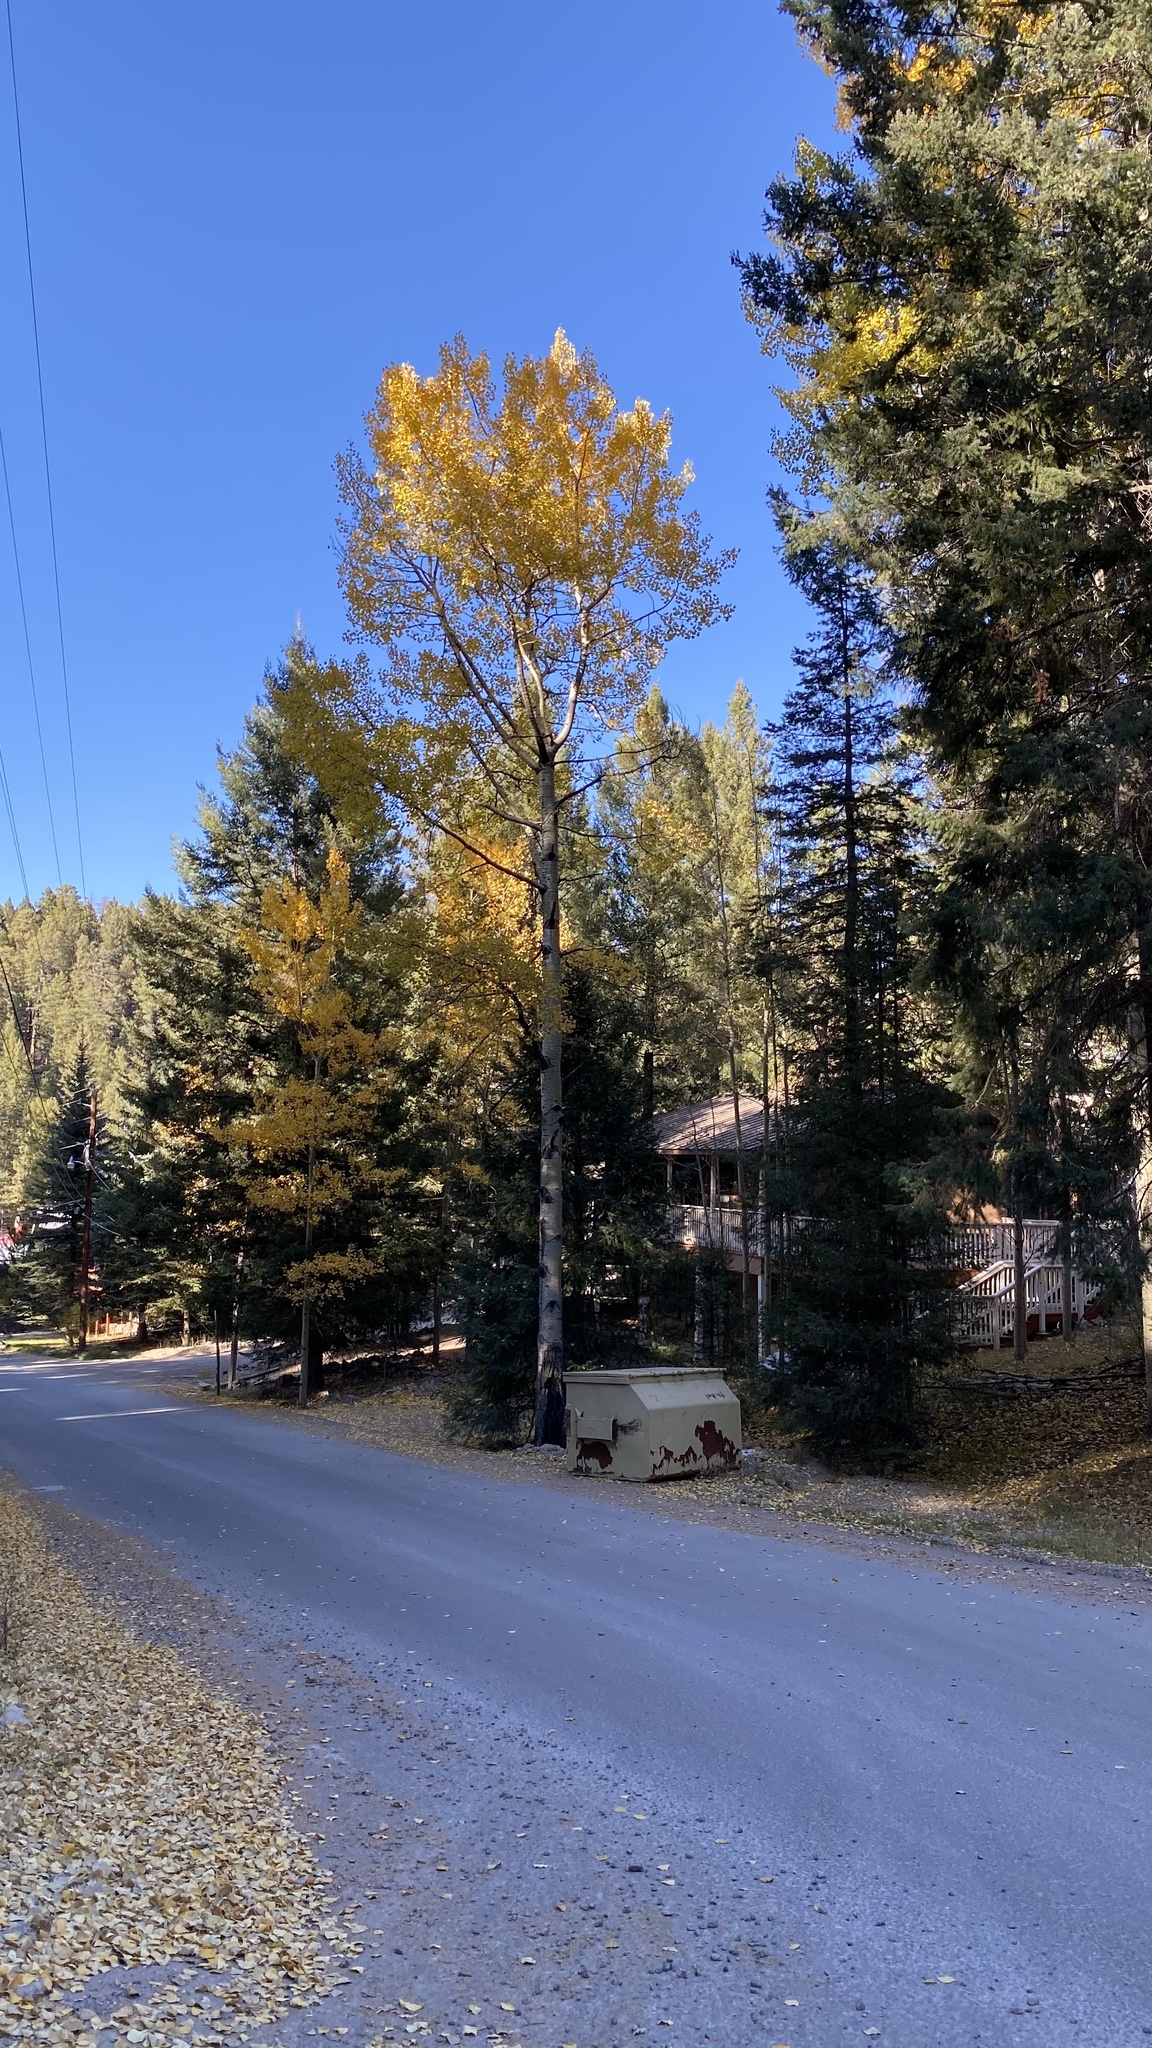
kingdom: Plantae
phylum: Tracheophyta
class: Magnoliopsida
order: Malpighiales
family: Salicaceae
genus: Populus
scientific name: Populus tremuloides
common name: Quaking aspen
